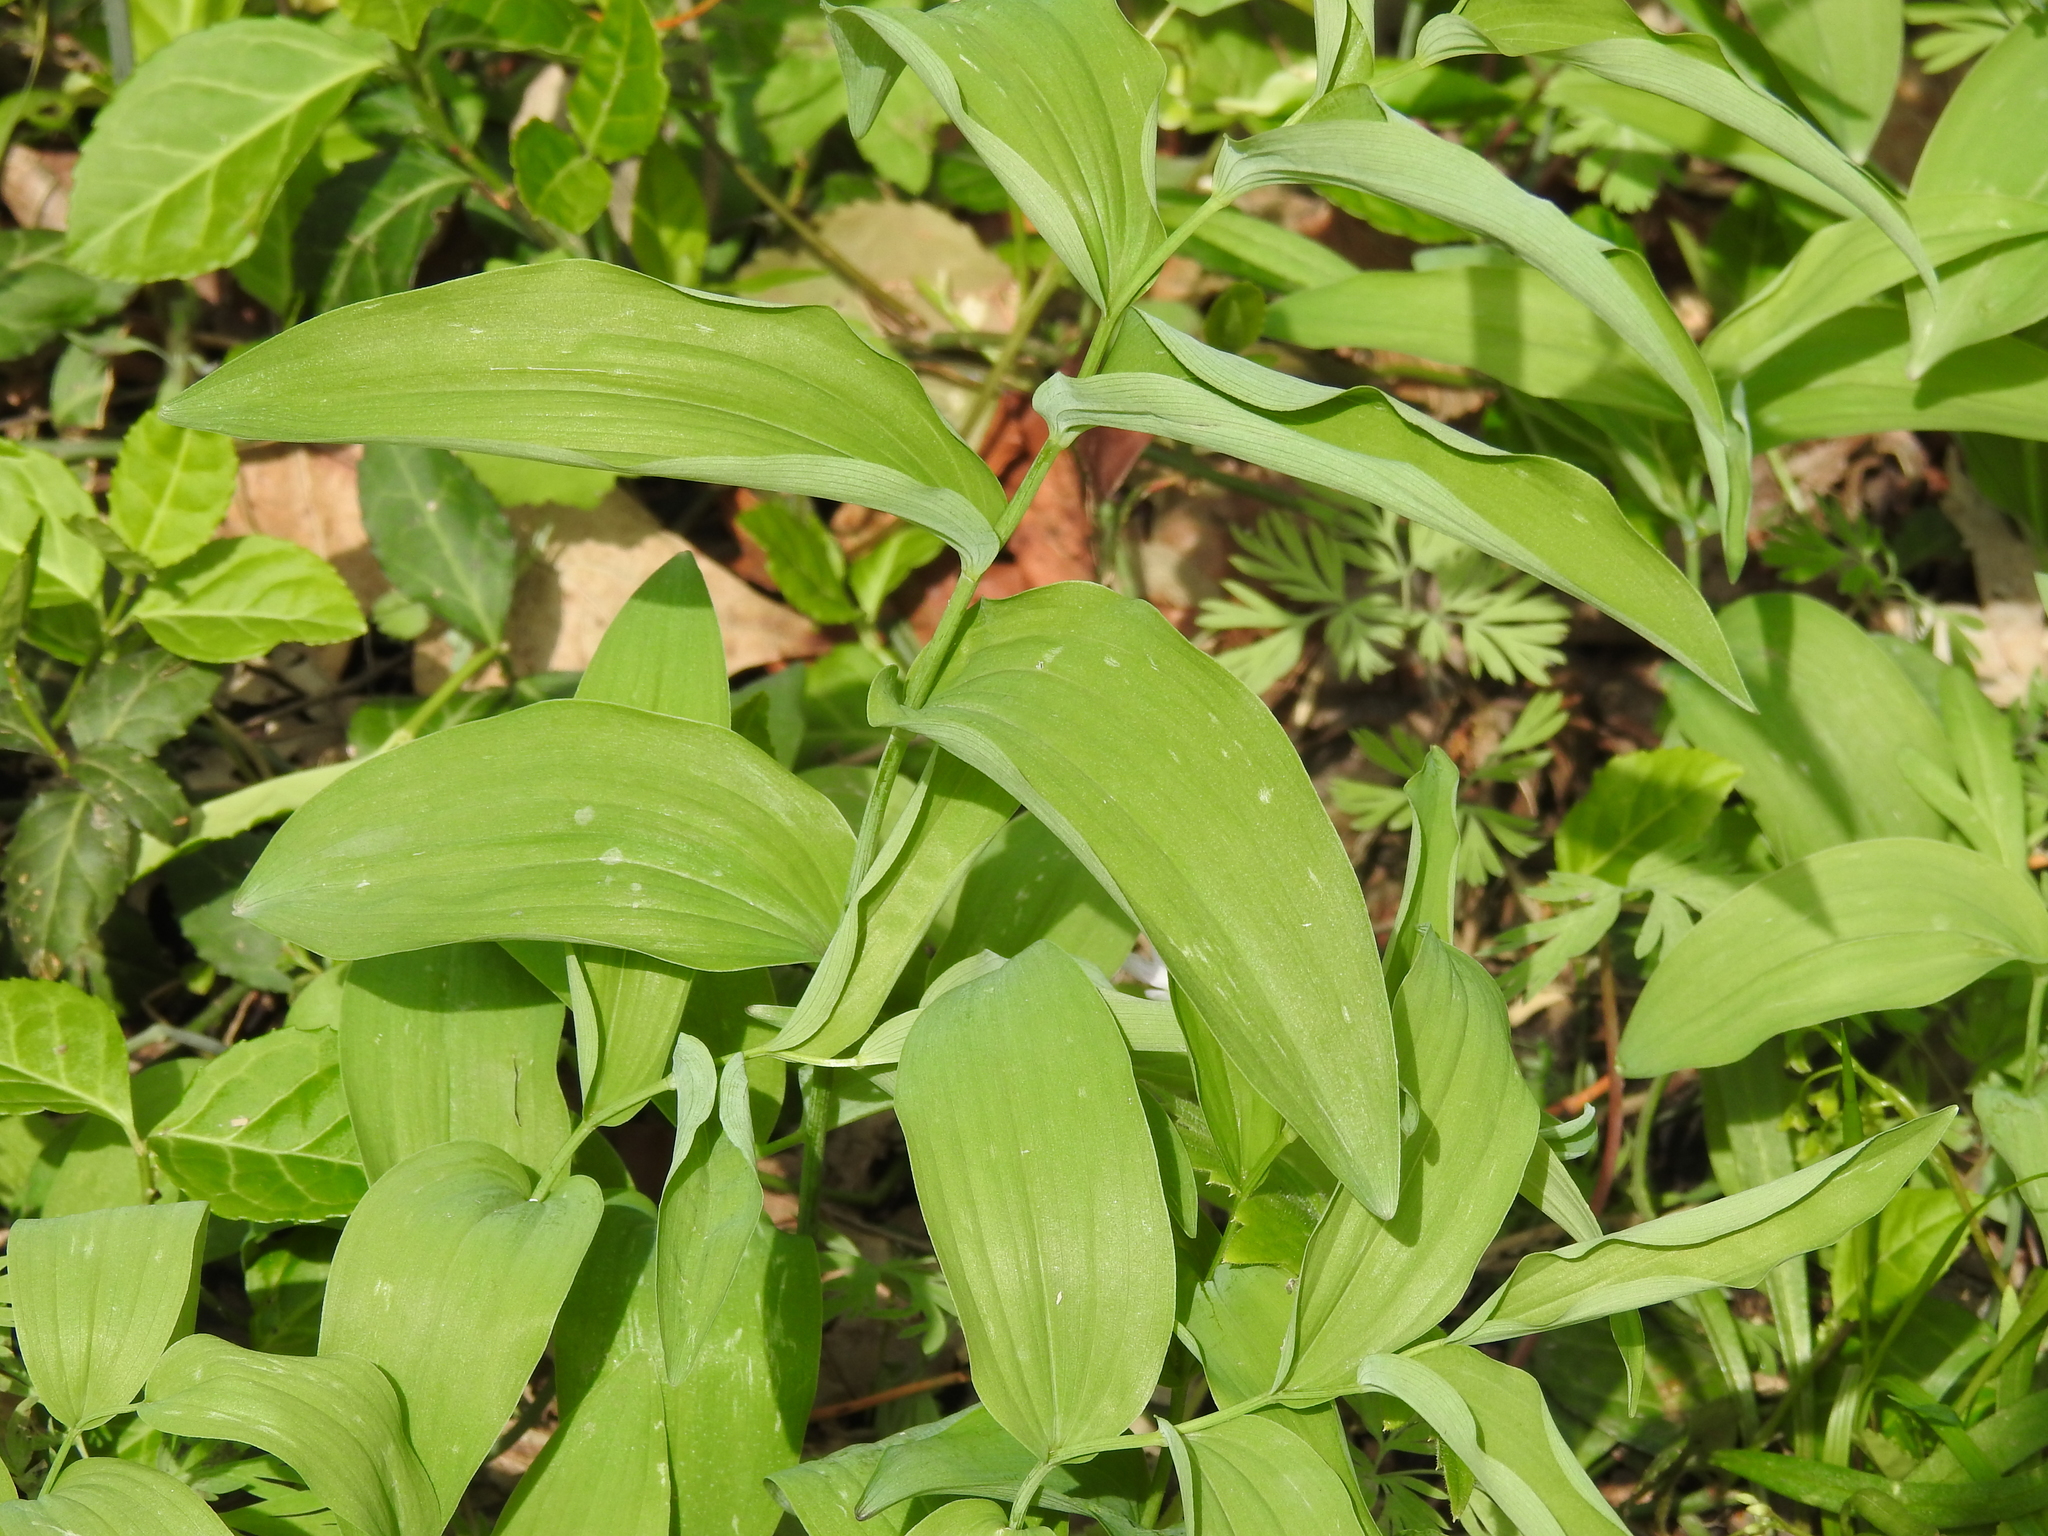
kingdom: Plantae
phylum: Tracheophyta
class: Liliopsida
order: Asparagales
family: Asparagaceae
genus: Polygonatum
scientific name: Polygonatum biflorum
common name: American solomon's-seal
